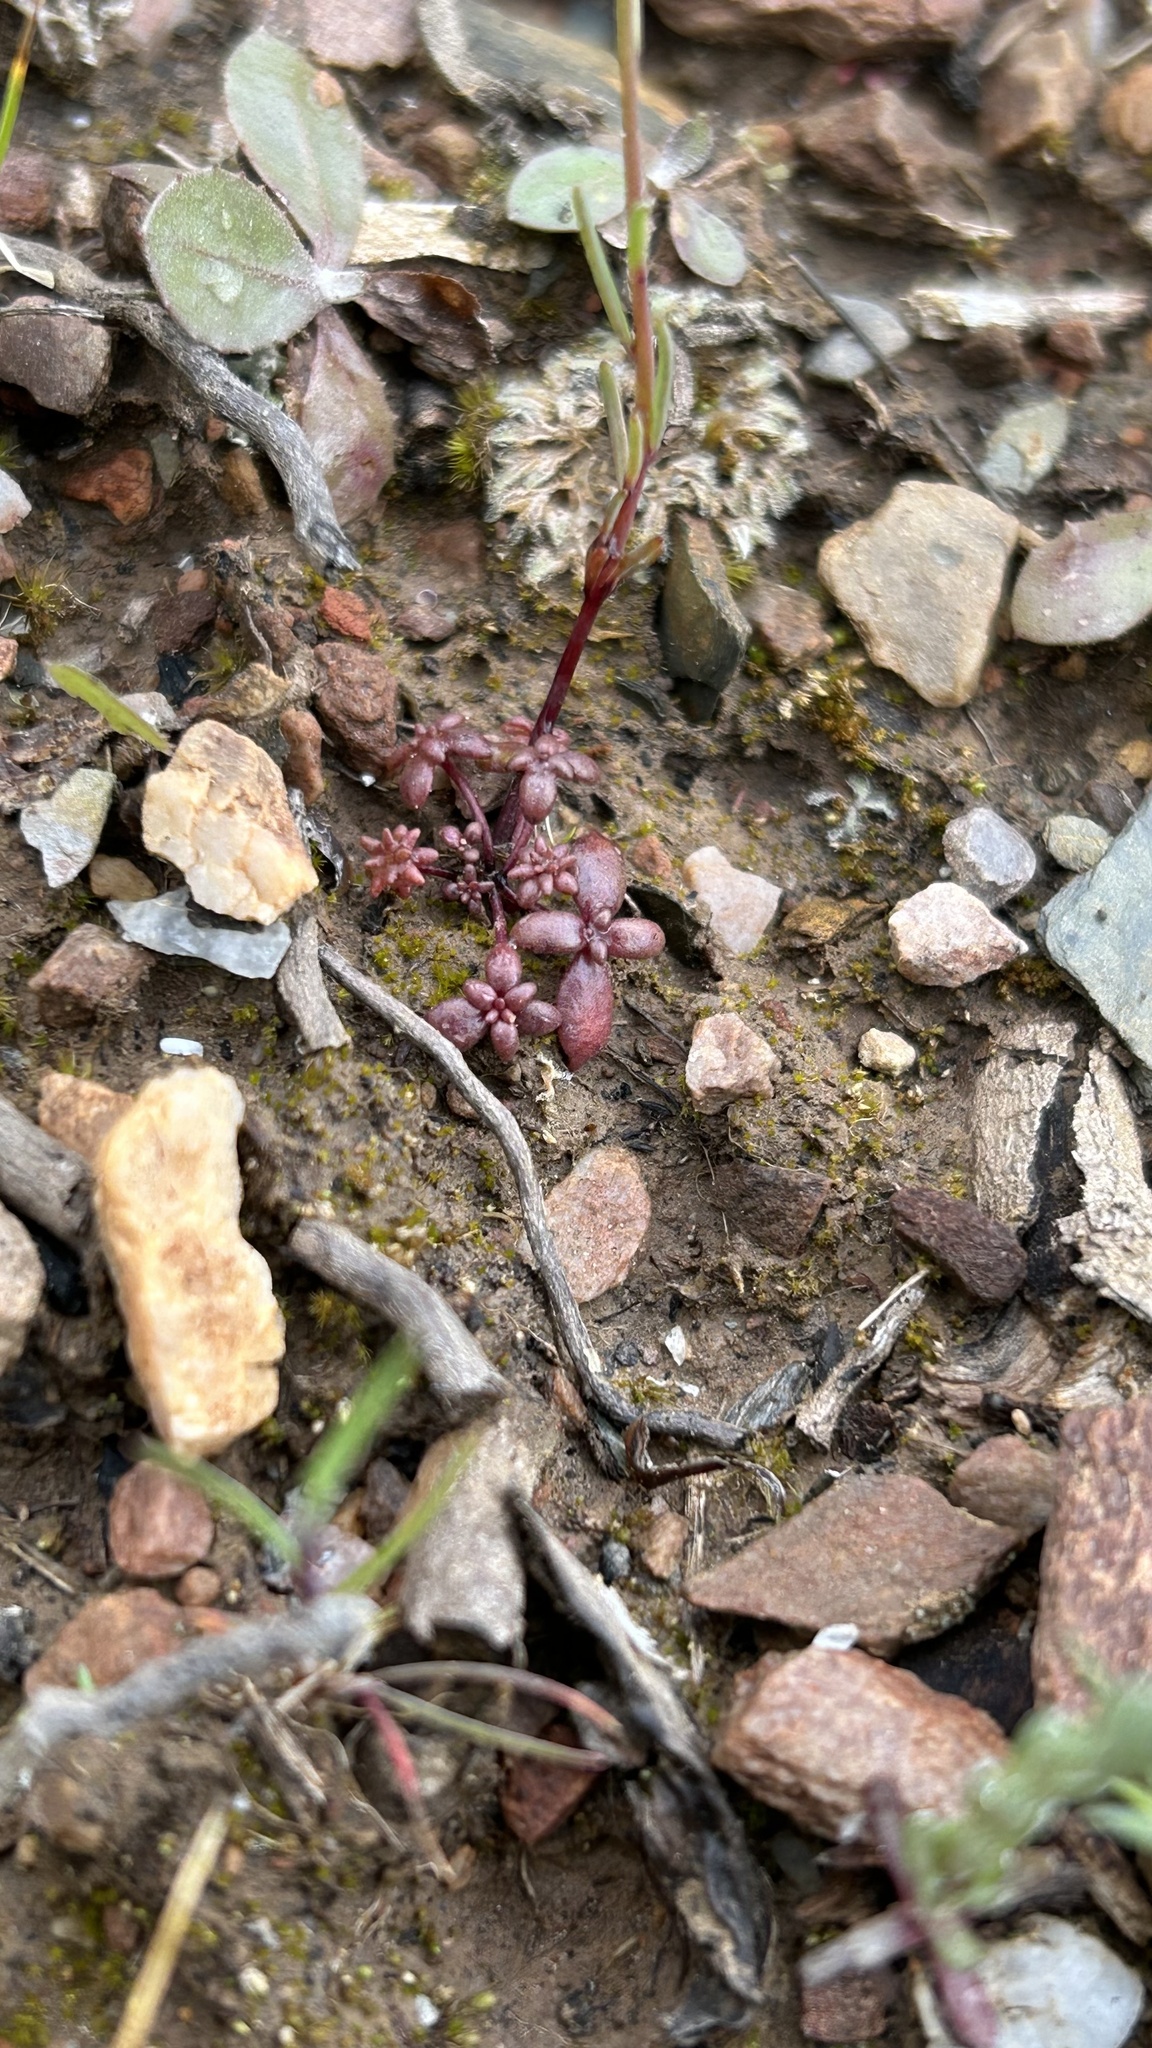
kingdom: Plantae
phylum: Tracheophyta
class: Magnoliopsida
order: Lamiales
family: Plantaginaceae
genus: Linaria
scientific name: Linaria elegans
